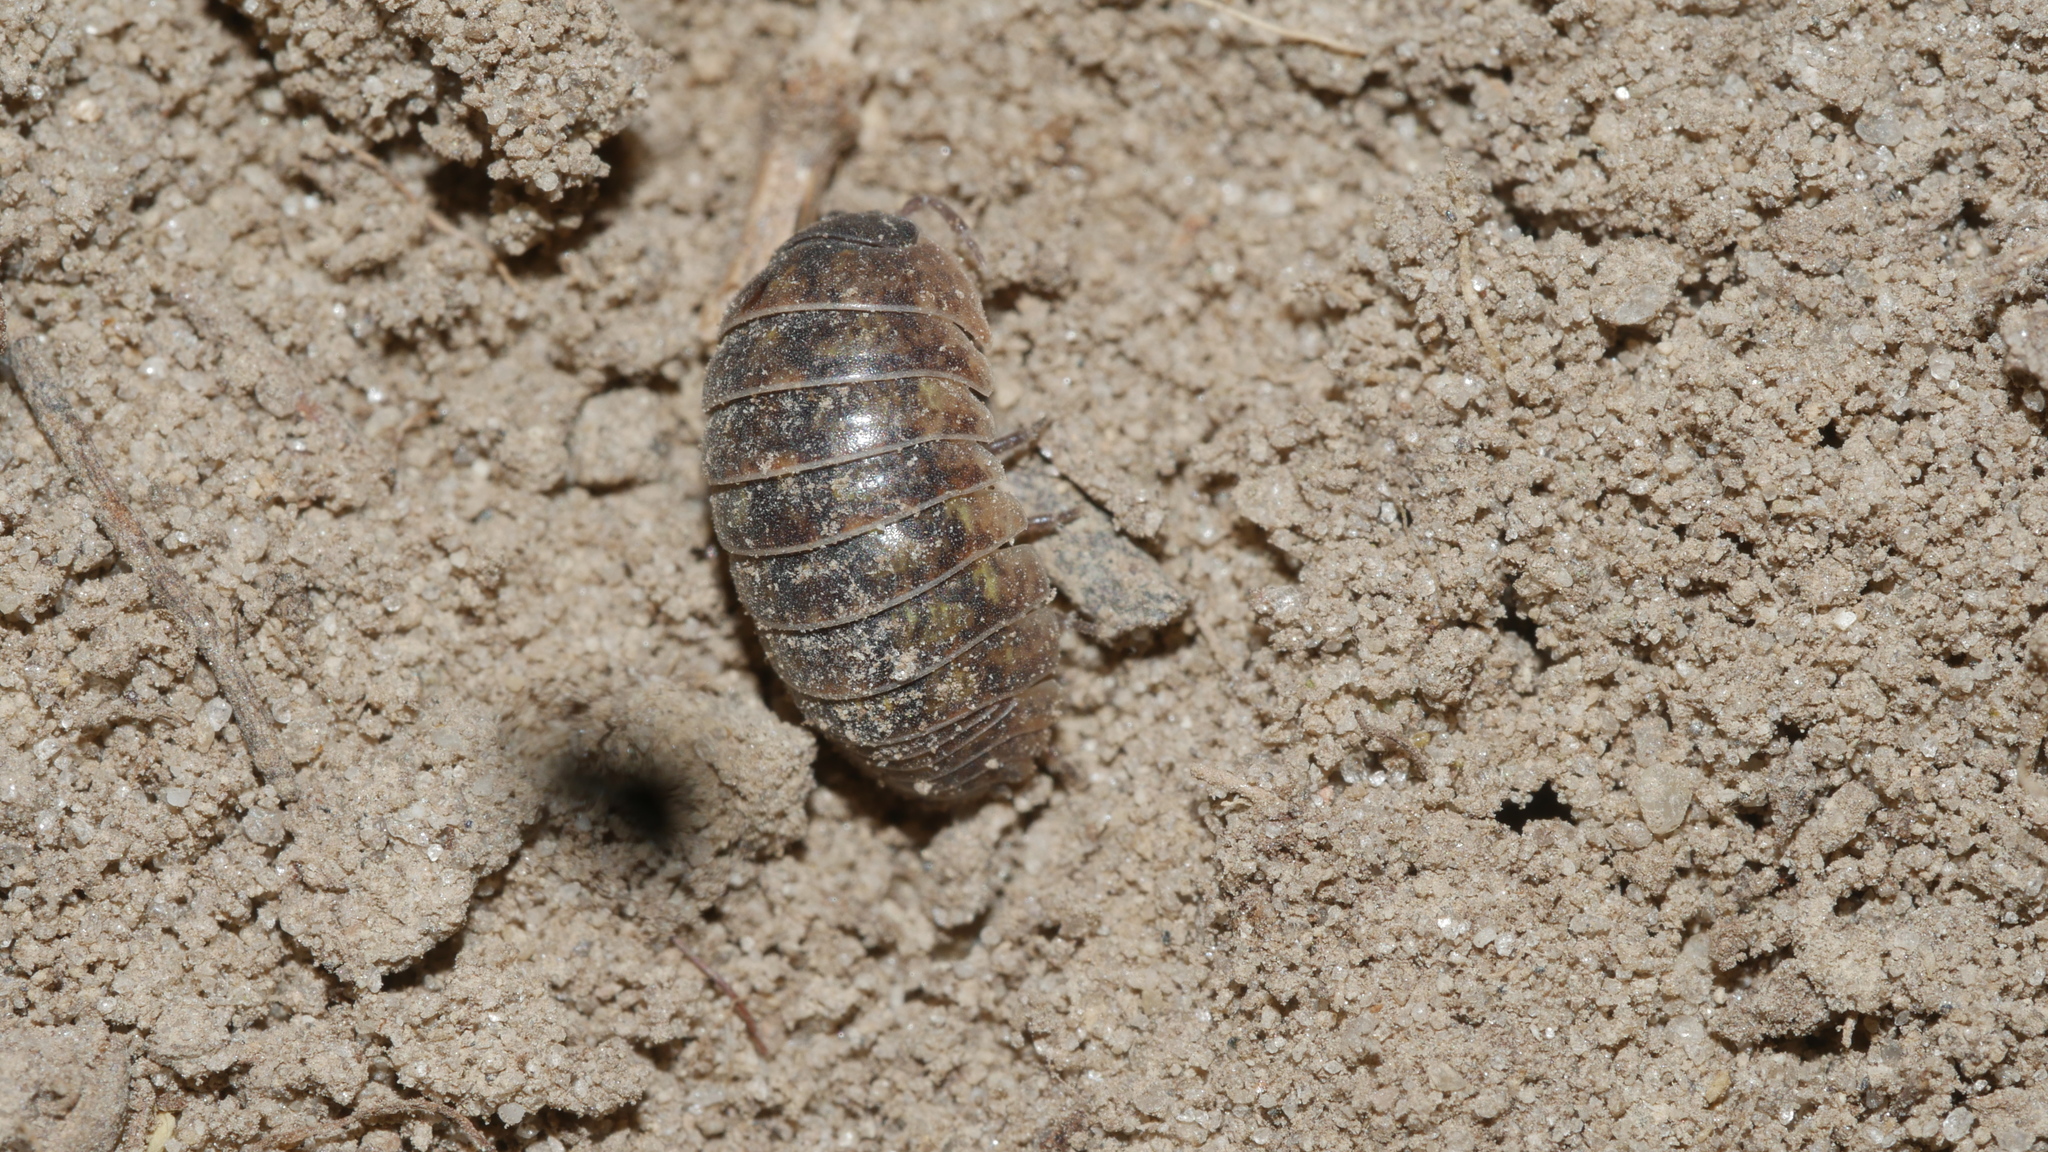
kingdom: Animalia
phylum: Arthropoda
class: Malacostraca
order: Isopoda
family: Armadillidiidae
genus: Armadillidium
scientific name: Armadillidium vulgare
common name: Common pill woodlouse
